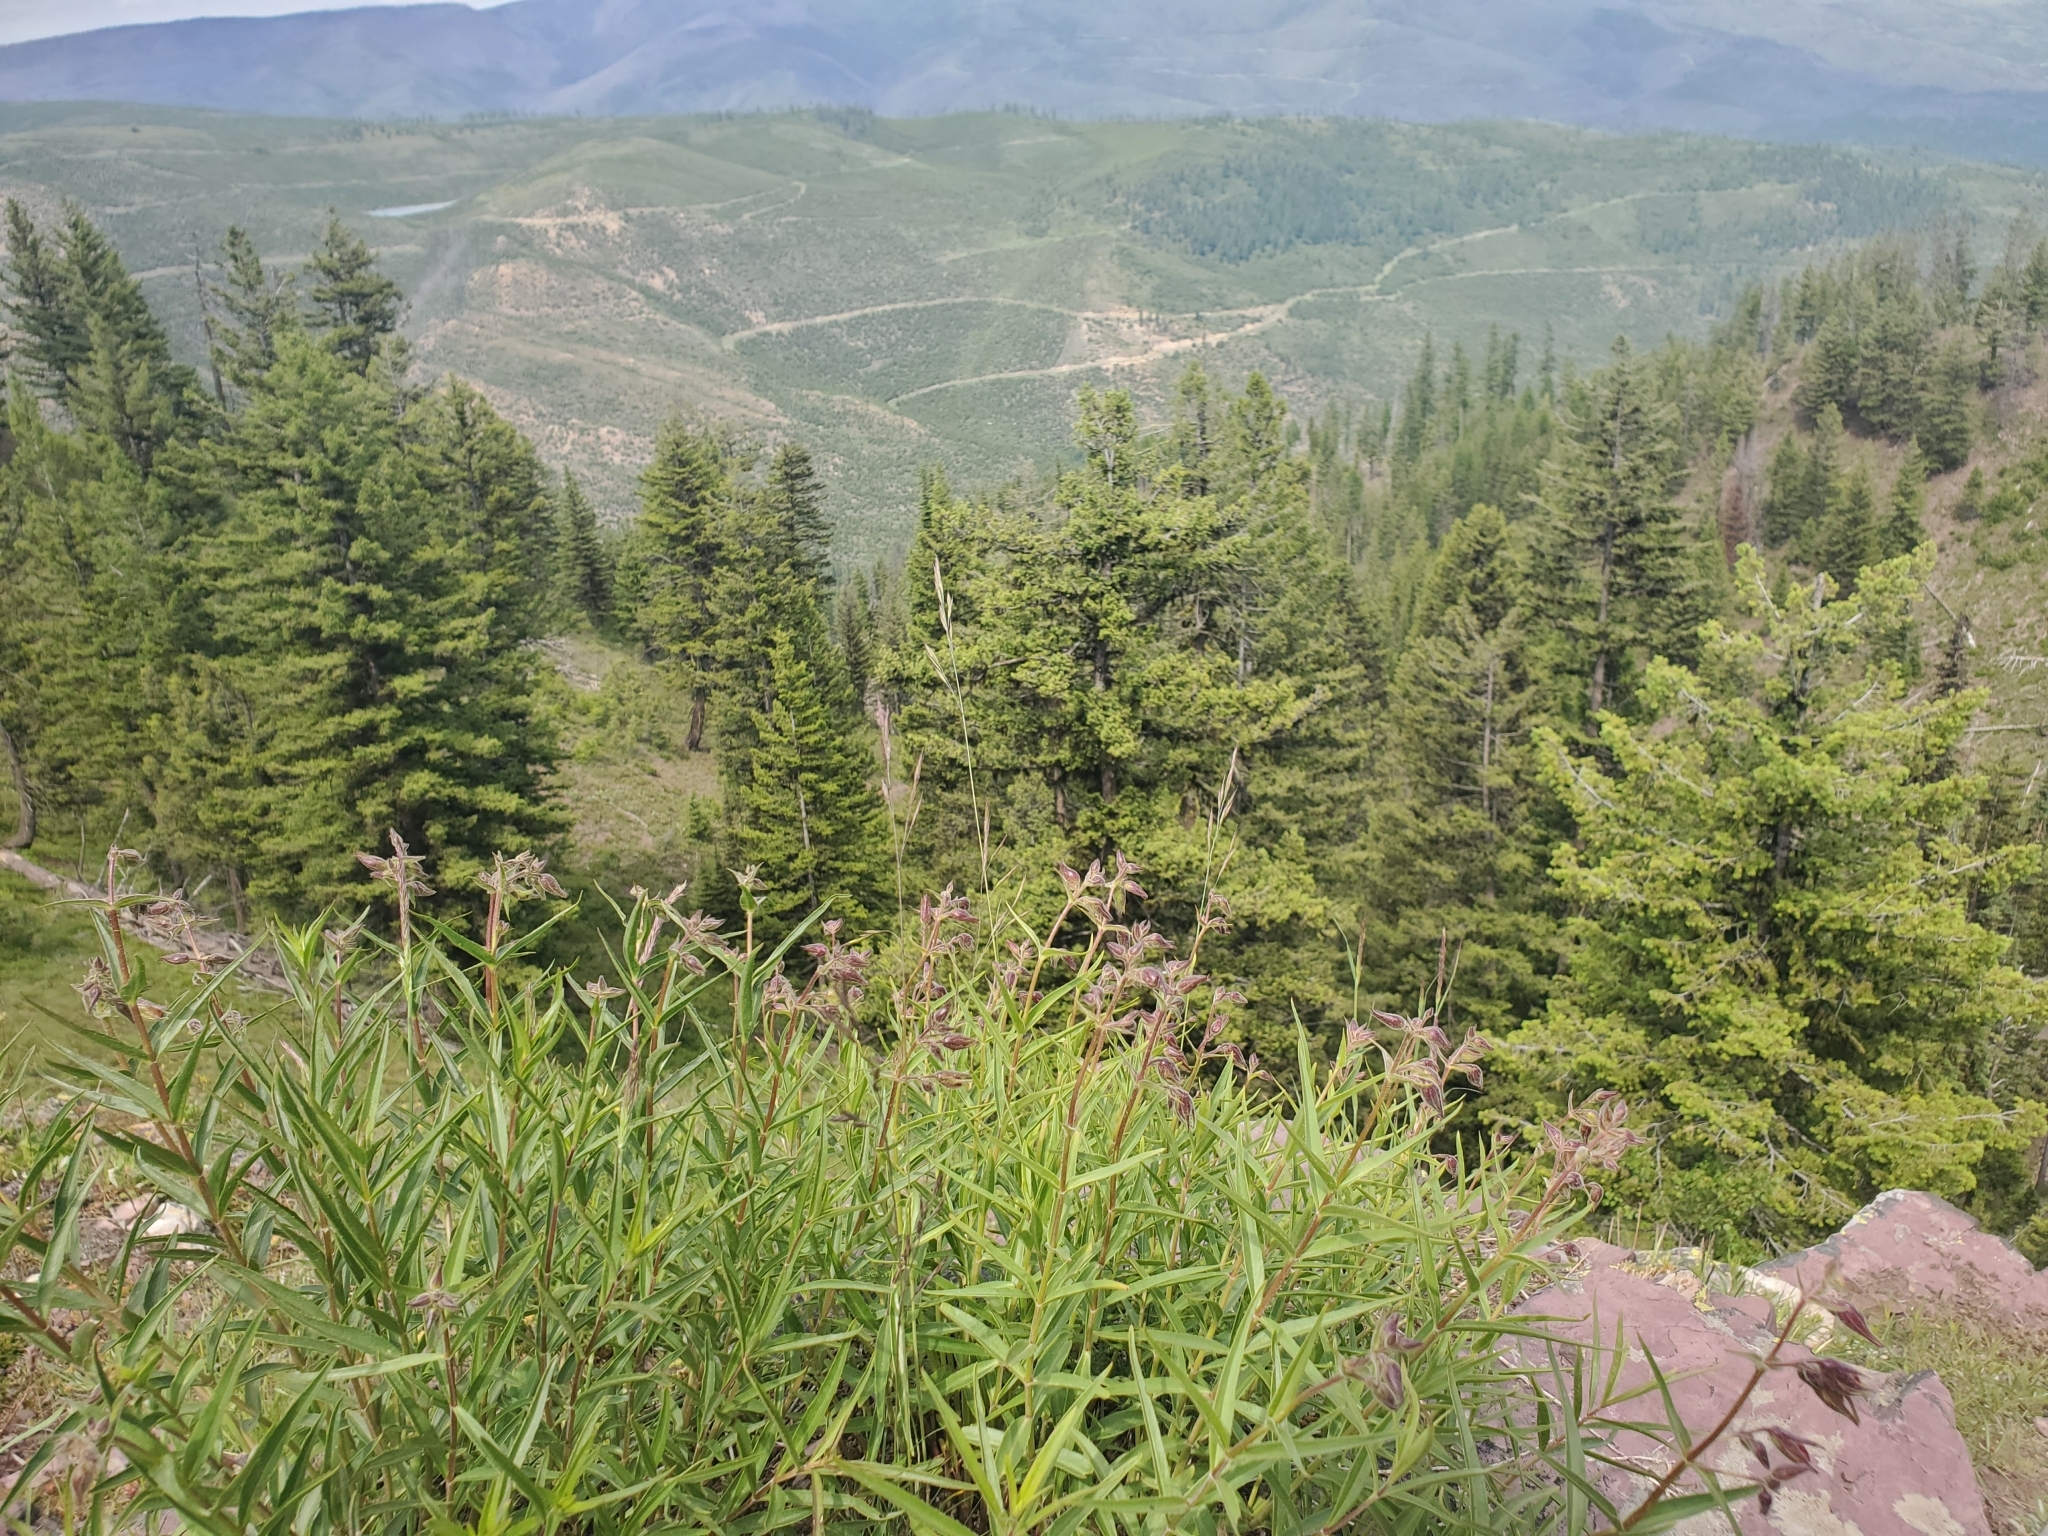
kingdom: Plantae
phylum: Tracheophyta
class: Magnoliopsida
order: Lamiales
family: Plantaginaceae
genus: Penstemon
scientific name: Penstemon lyalli
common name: Lyall's beardtongue
